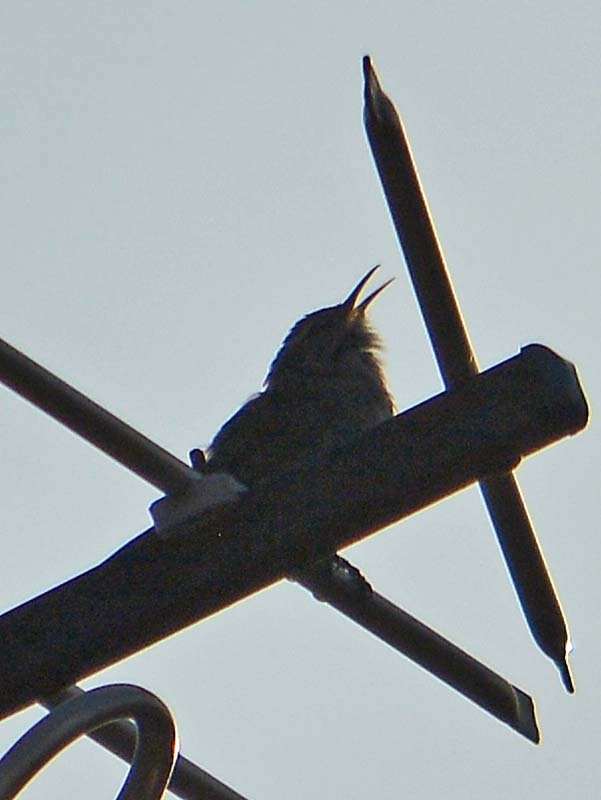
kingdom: Animalia
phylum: Chordata
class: Aves
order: Passeriformes
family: Troglodytidae
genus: Thryomanes
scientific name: Thryomanes bewickii
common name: Bewick's wren
